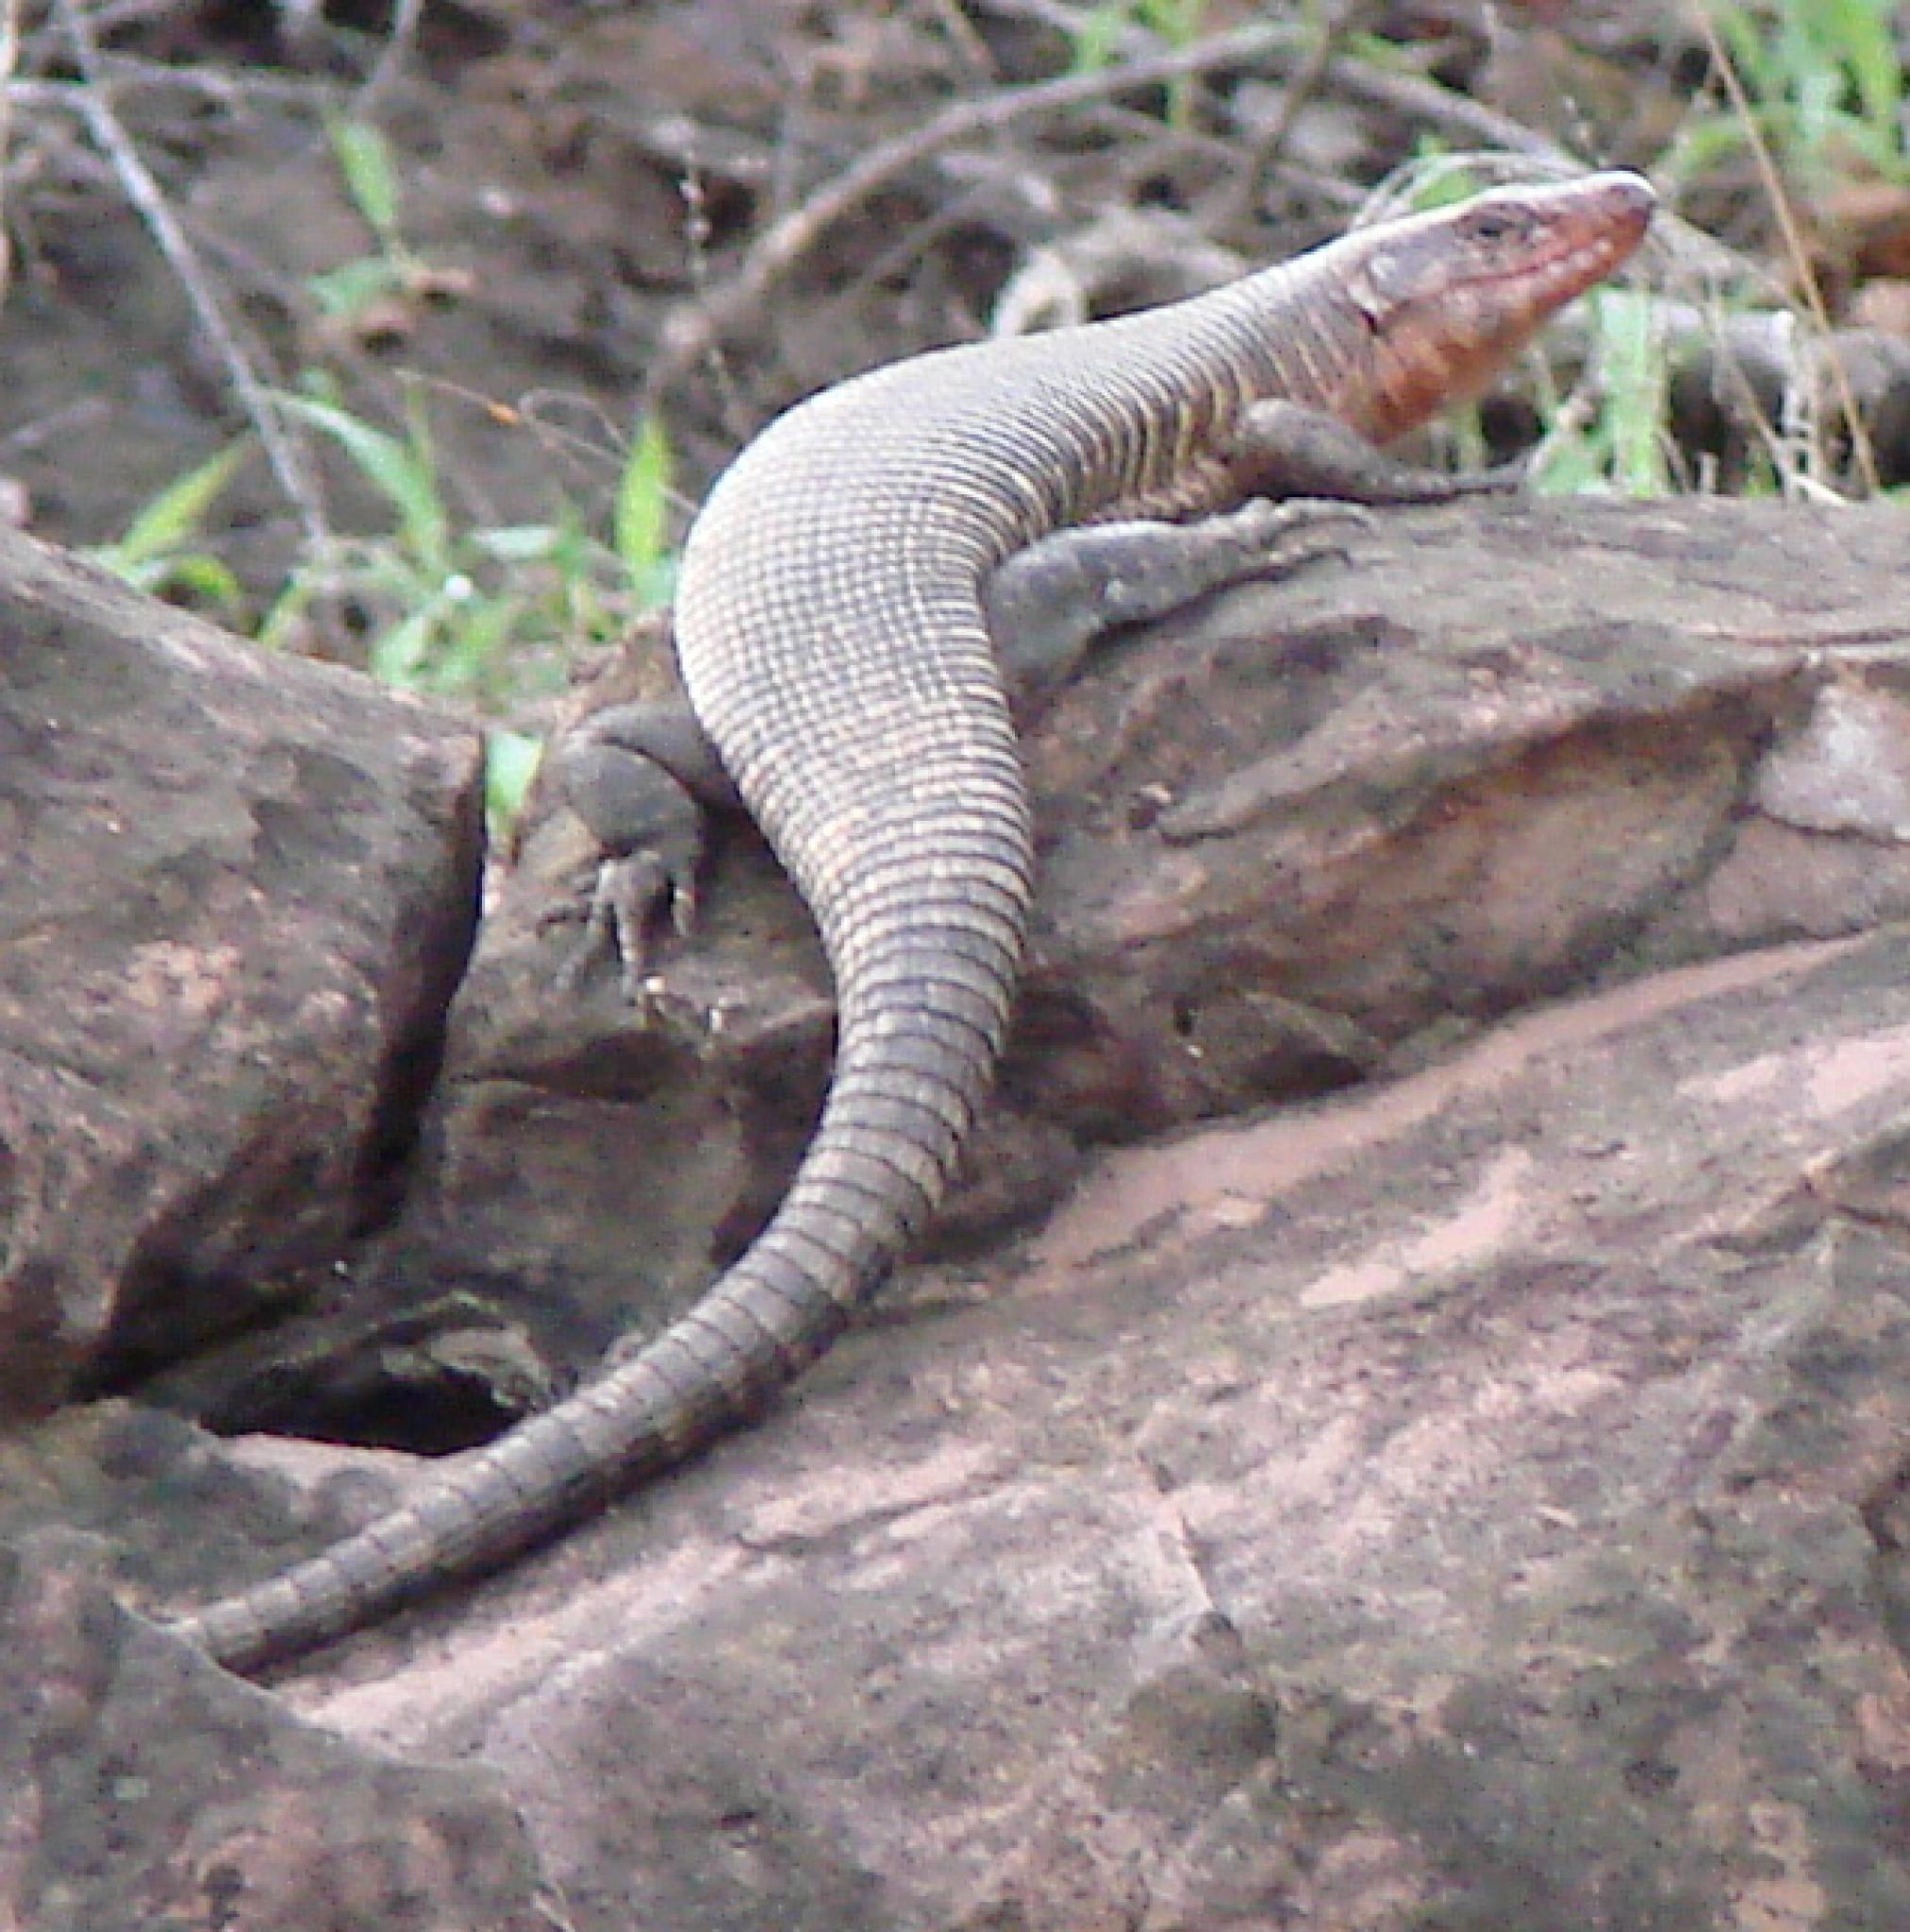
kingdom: Animalia
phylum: Chordata
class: Squamata
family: Gerrhosauridae
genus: Matobosaurus
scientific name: Matobosaurus validus
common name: Common giant plated lizard
